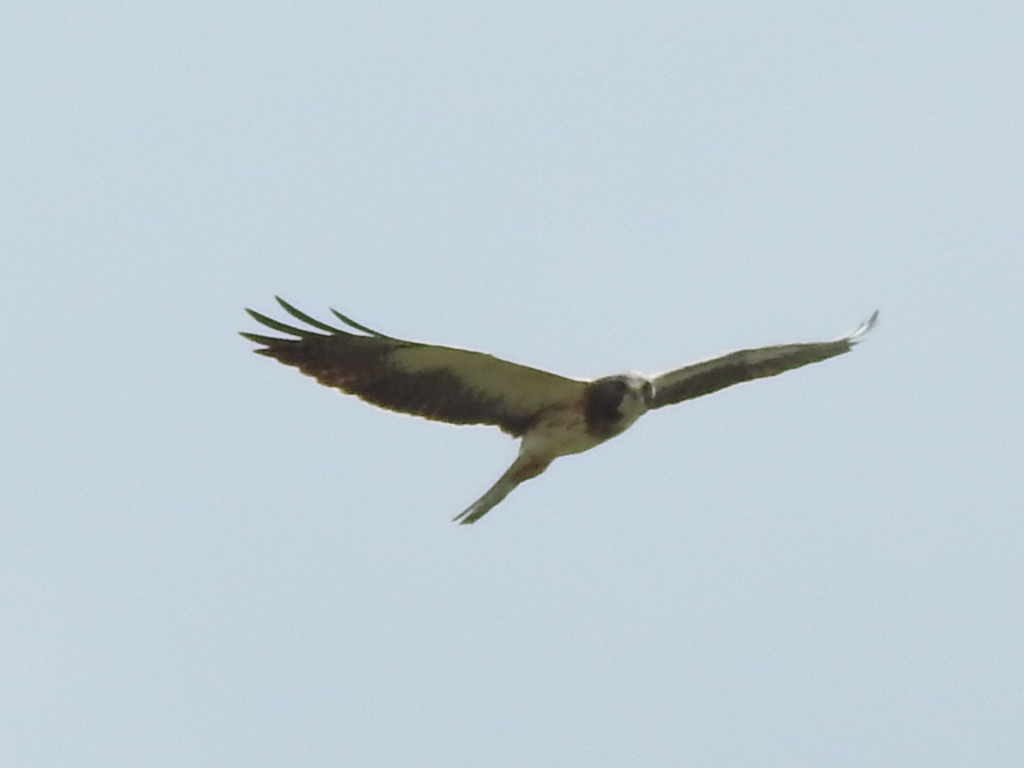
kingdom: Animalia
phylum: Chordata
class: Aves
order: Accipitriformes
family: Accipitridae
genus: Buteo
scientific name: Buteo swainsoni
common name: Swainson's hawk
